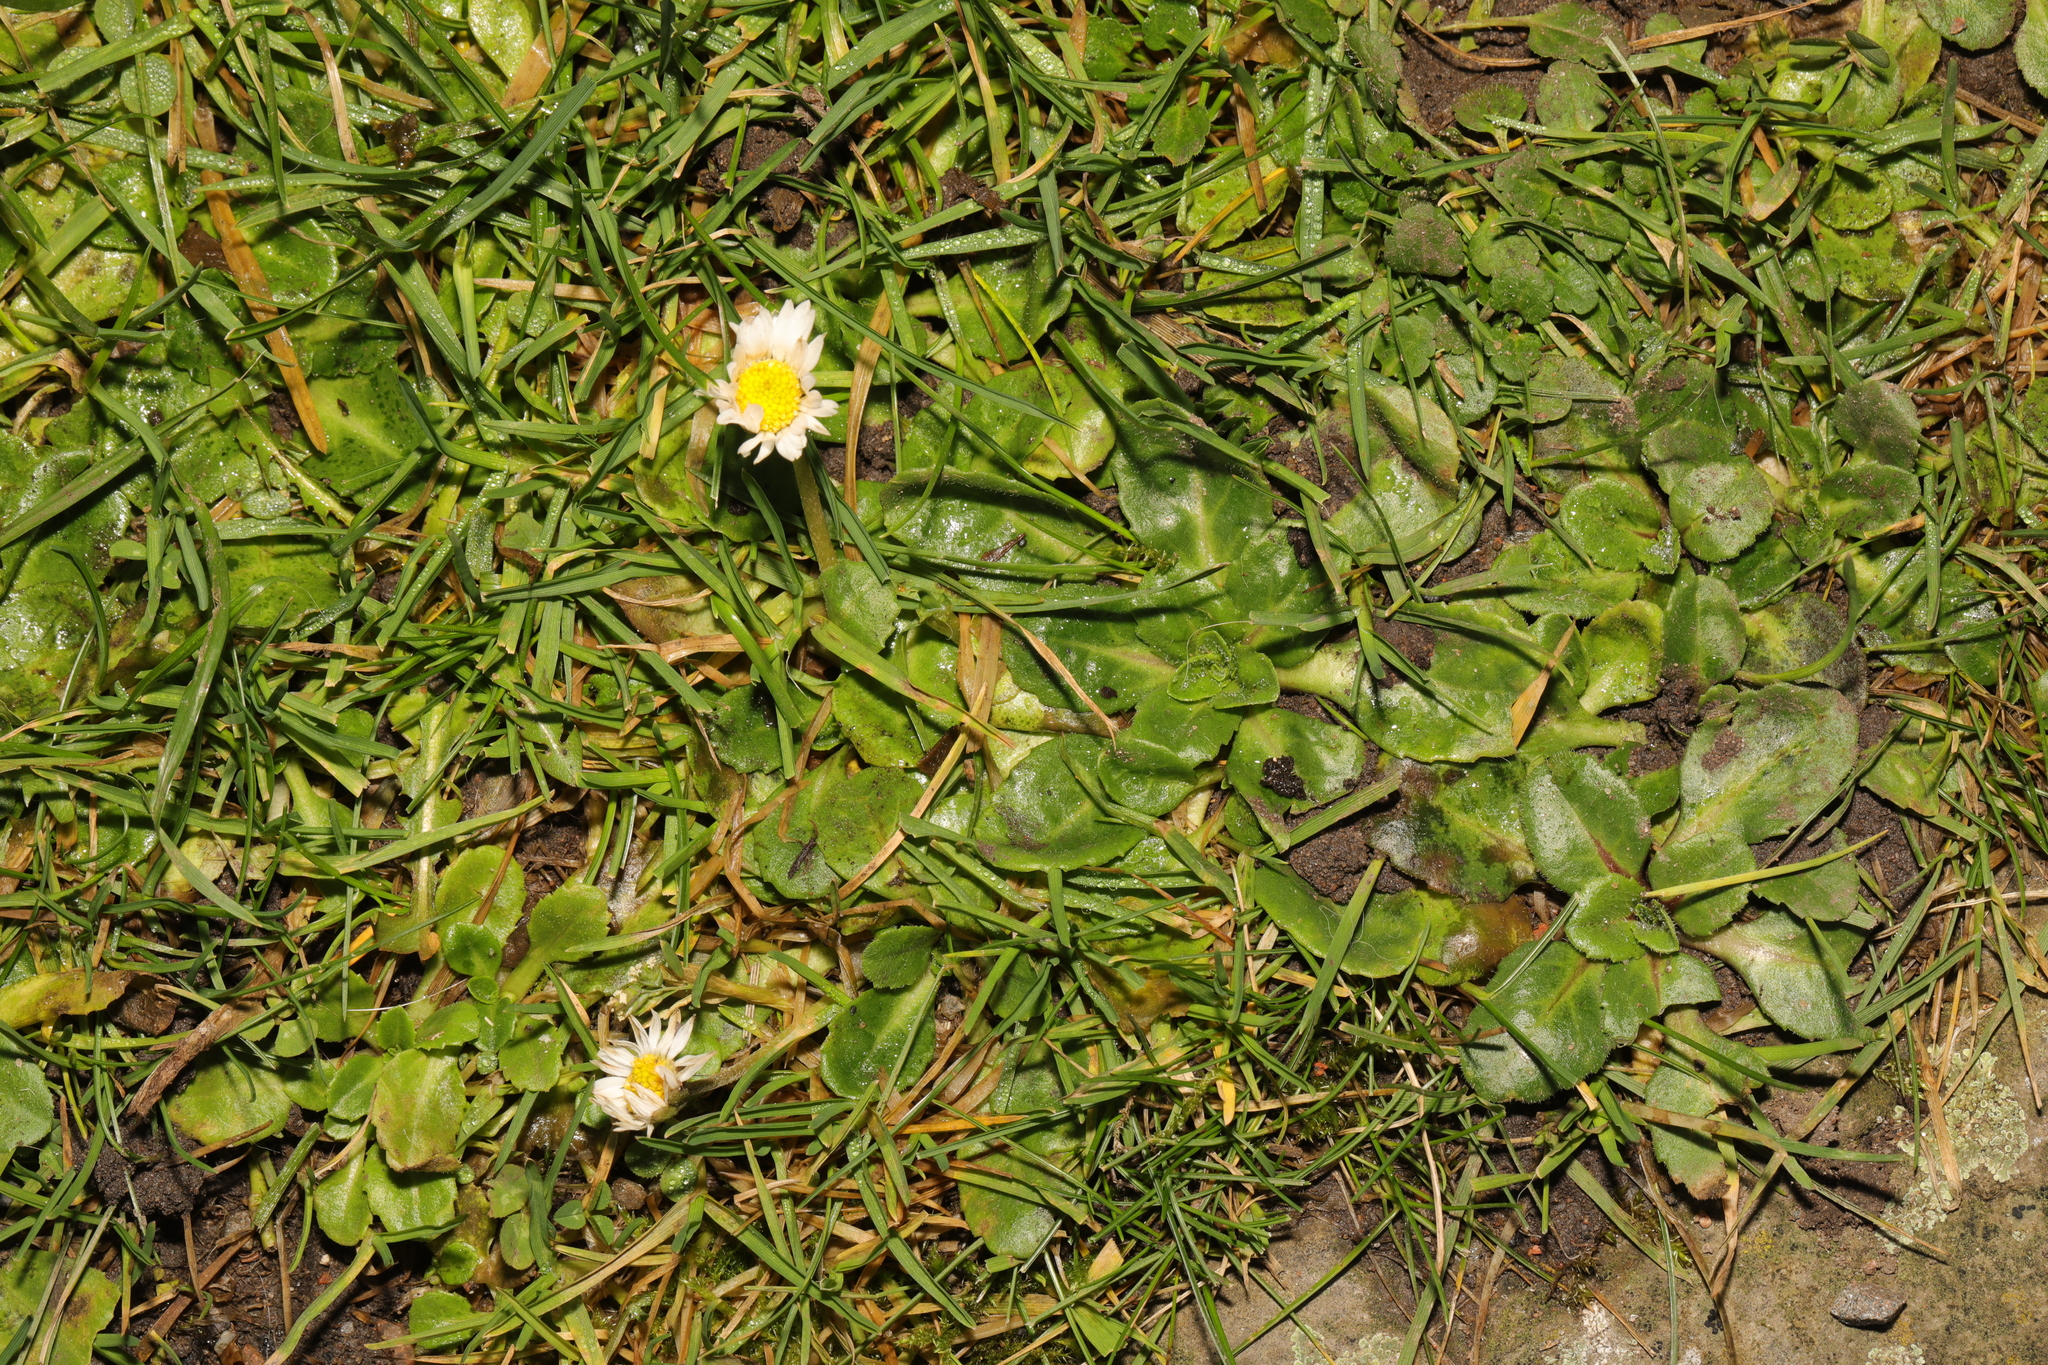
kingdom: Plantae
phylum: Tracheophyta
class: Magnoliopsida
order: Asterales
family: Asteraceae
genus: Bellis
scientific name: Bellis perennis
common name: Lawndaisy
